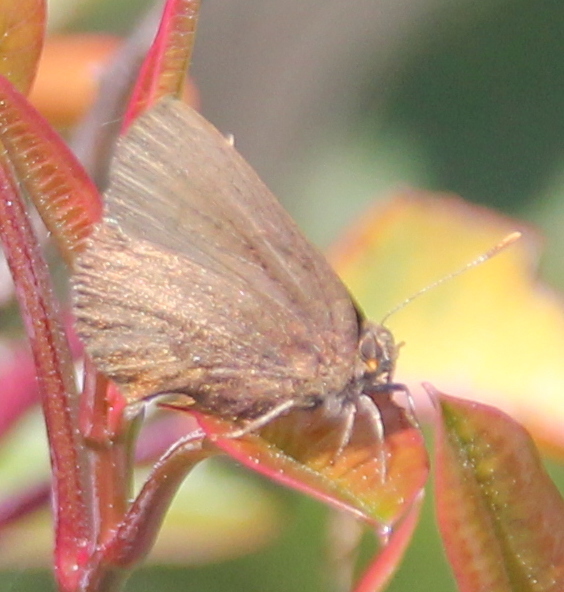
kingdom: Animalia
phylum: Arthropoda
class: Insecta
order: Lepidoptera
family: Lycaenidae
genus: Incisalia
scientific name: Incisalia irioides
